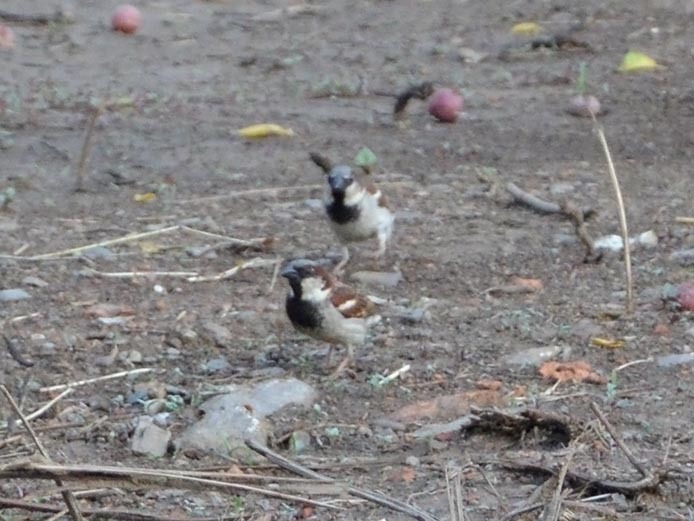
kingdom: Animalia
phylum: Chordata
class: Aves
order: Passeriformes
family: Passeridae
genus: Passer
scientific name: Passer domesticus
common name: House sparrow
